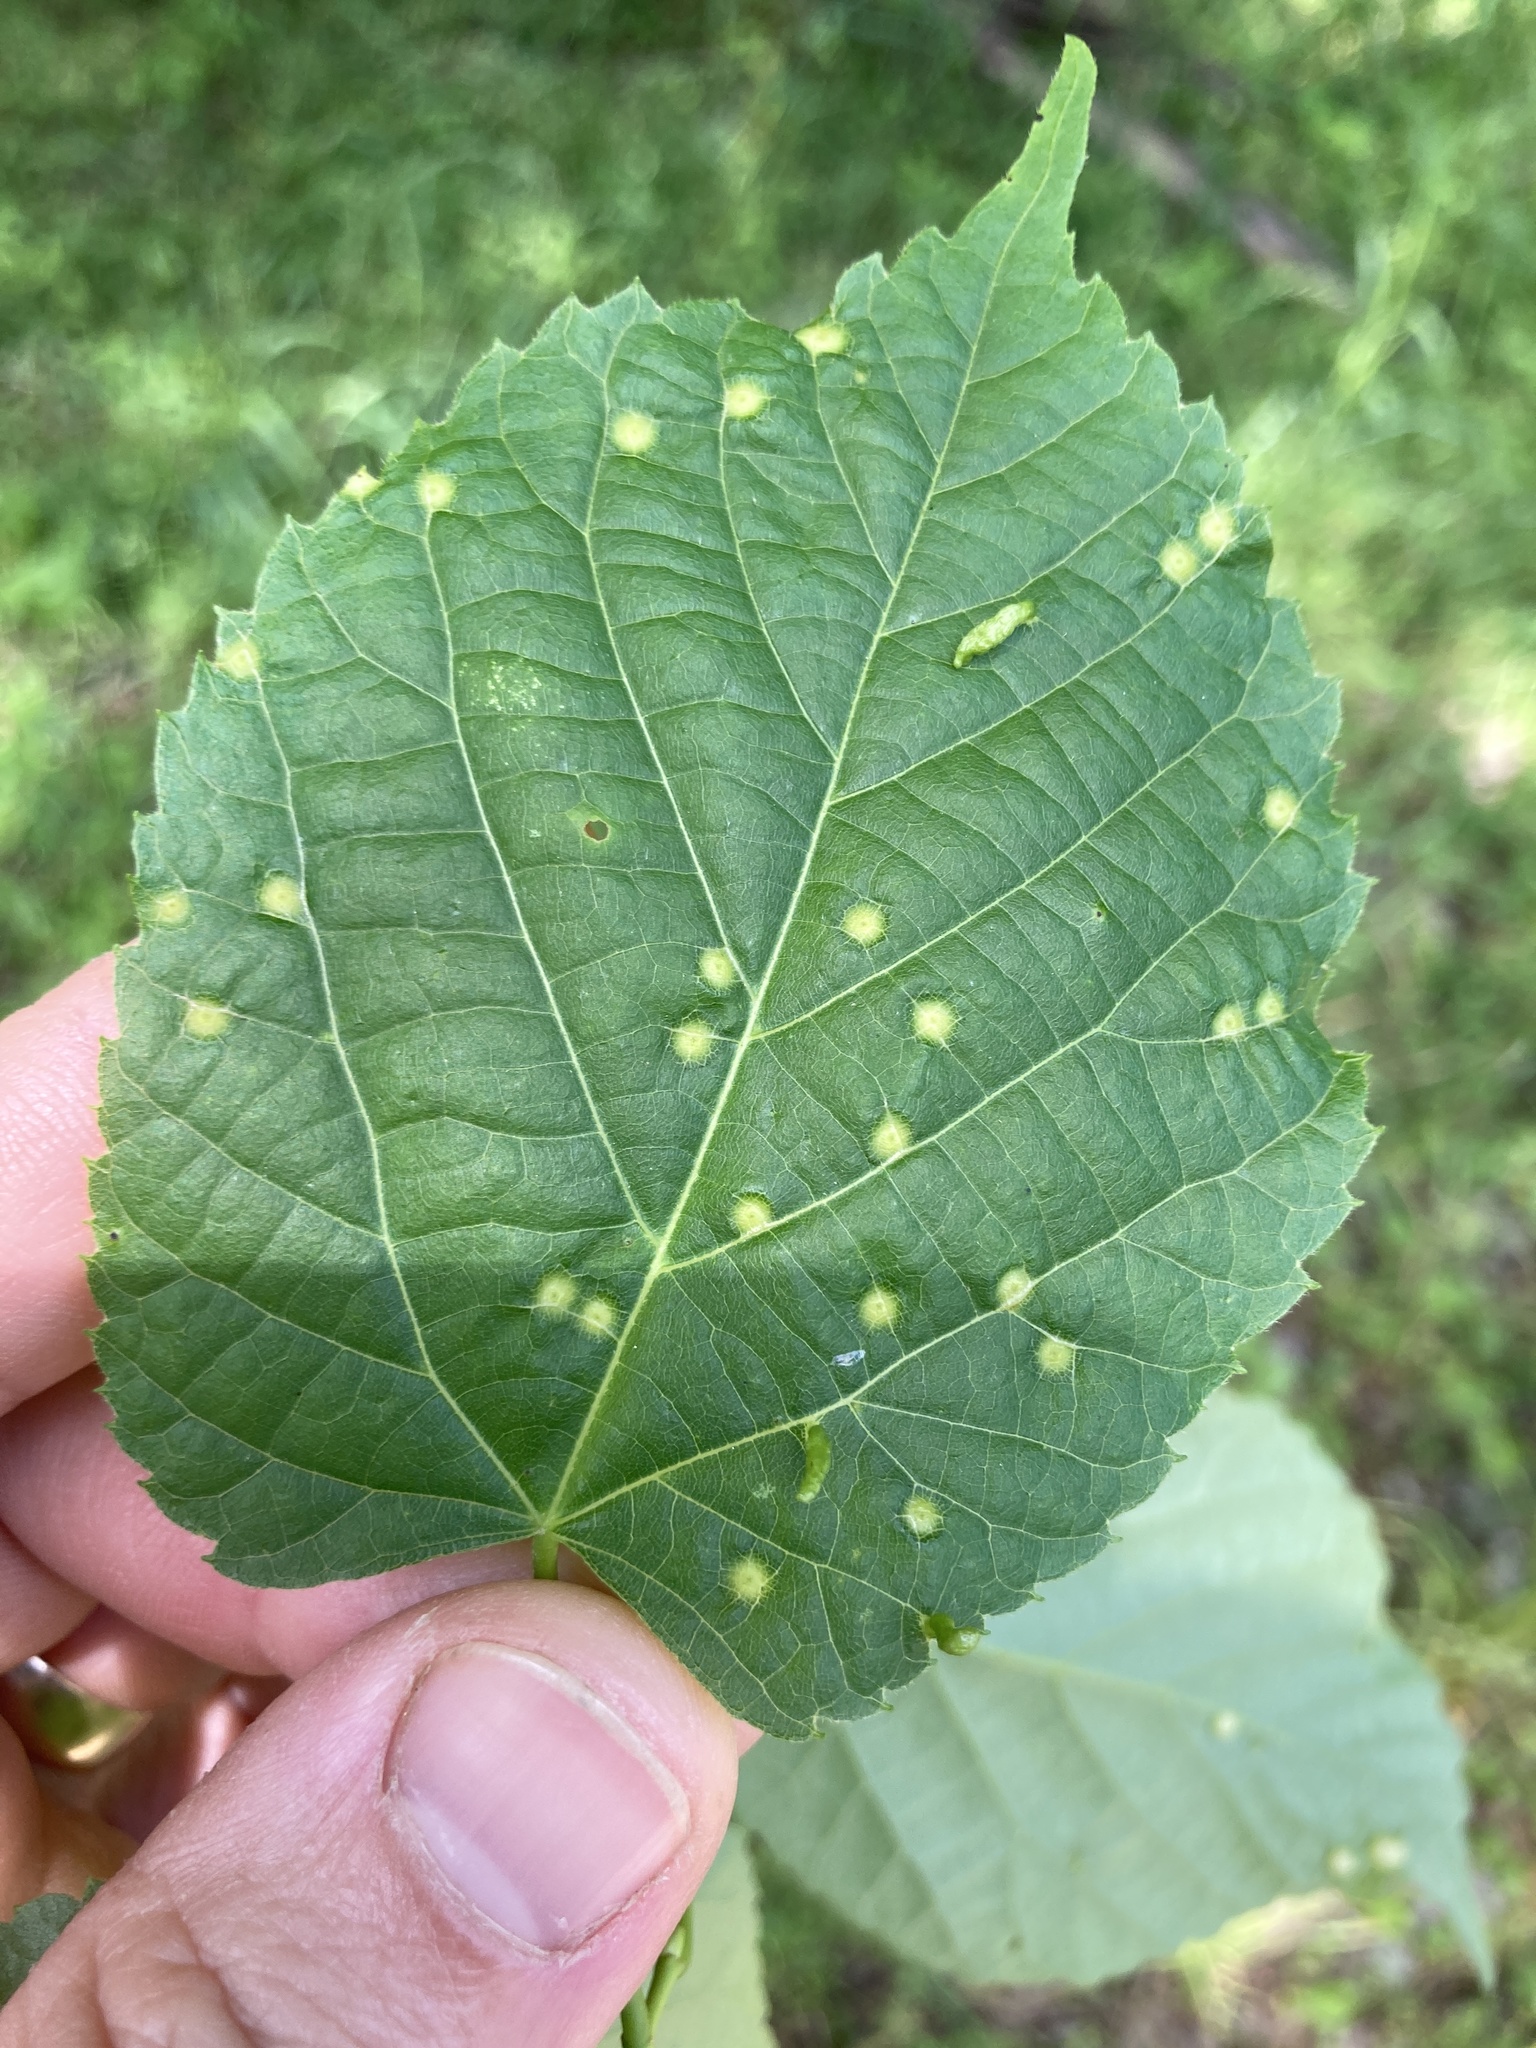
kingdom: Animalia
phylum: Arthropoda
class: Insecta
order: Diptera
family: Cecidomyiidae
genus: Contarinia
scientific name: Contarinia verrucicola
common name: Linden wart gall midge
